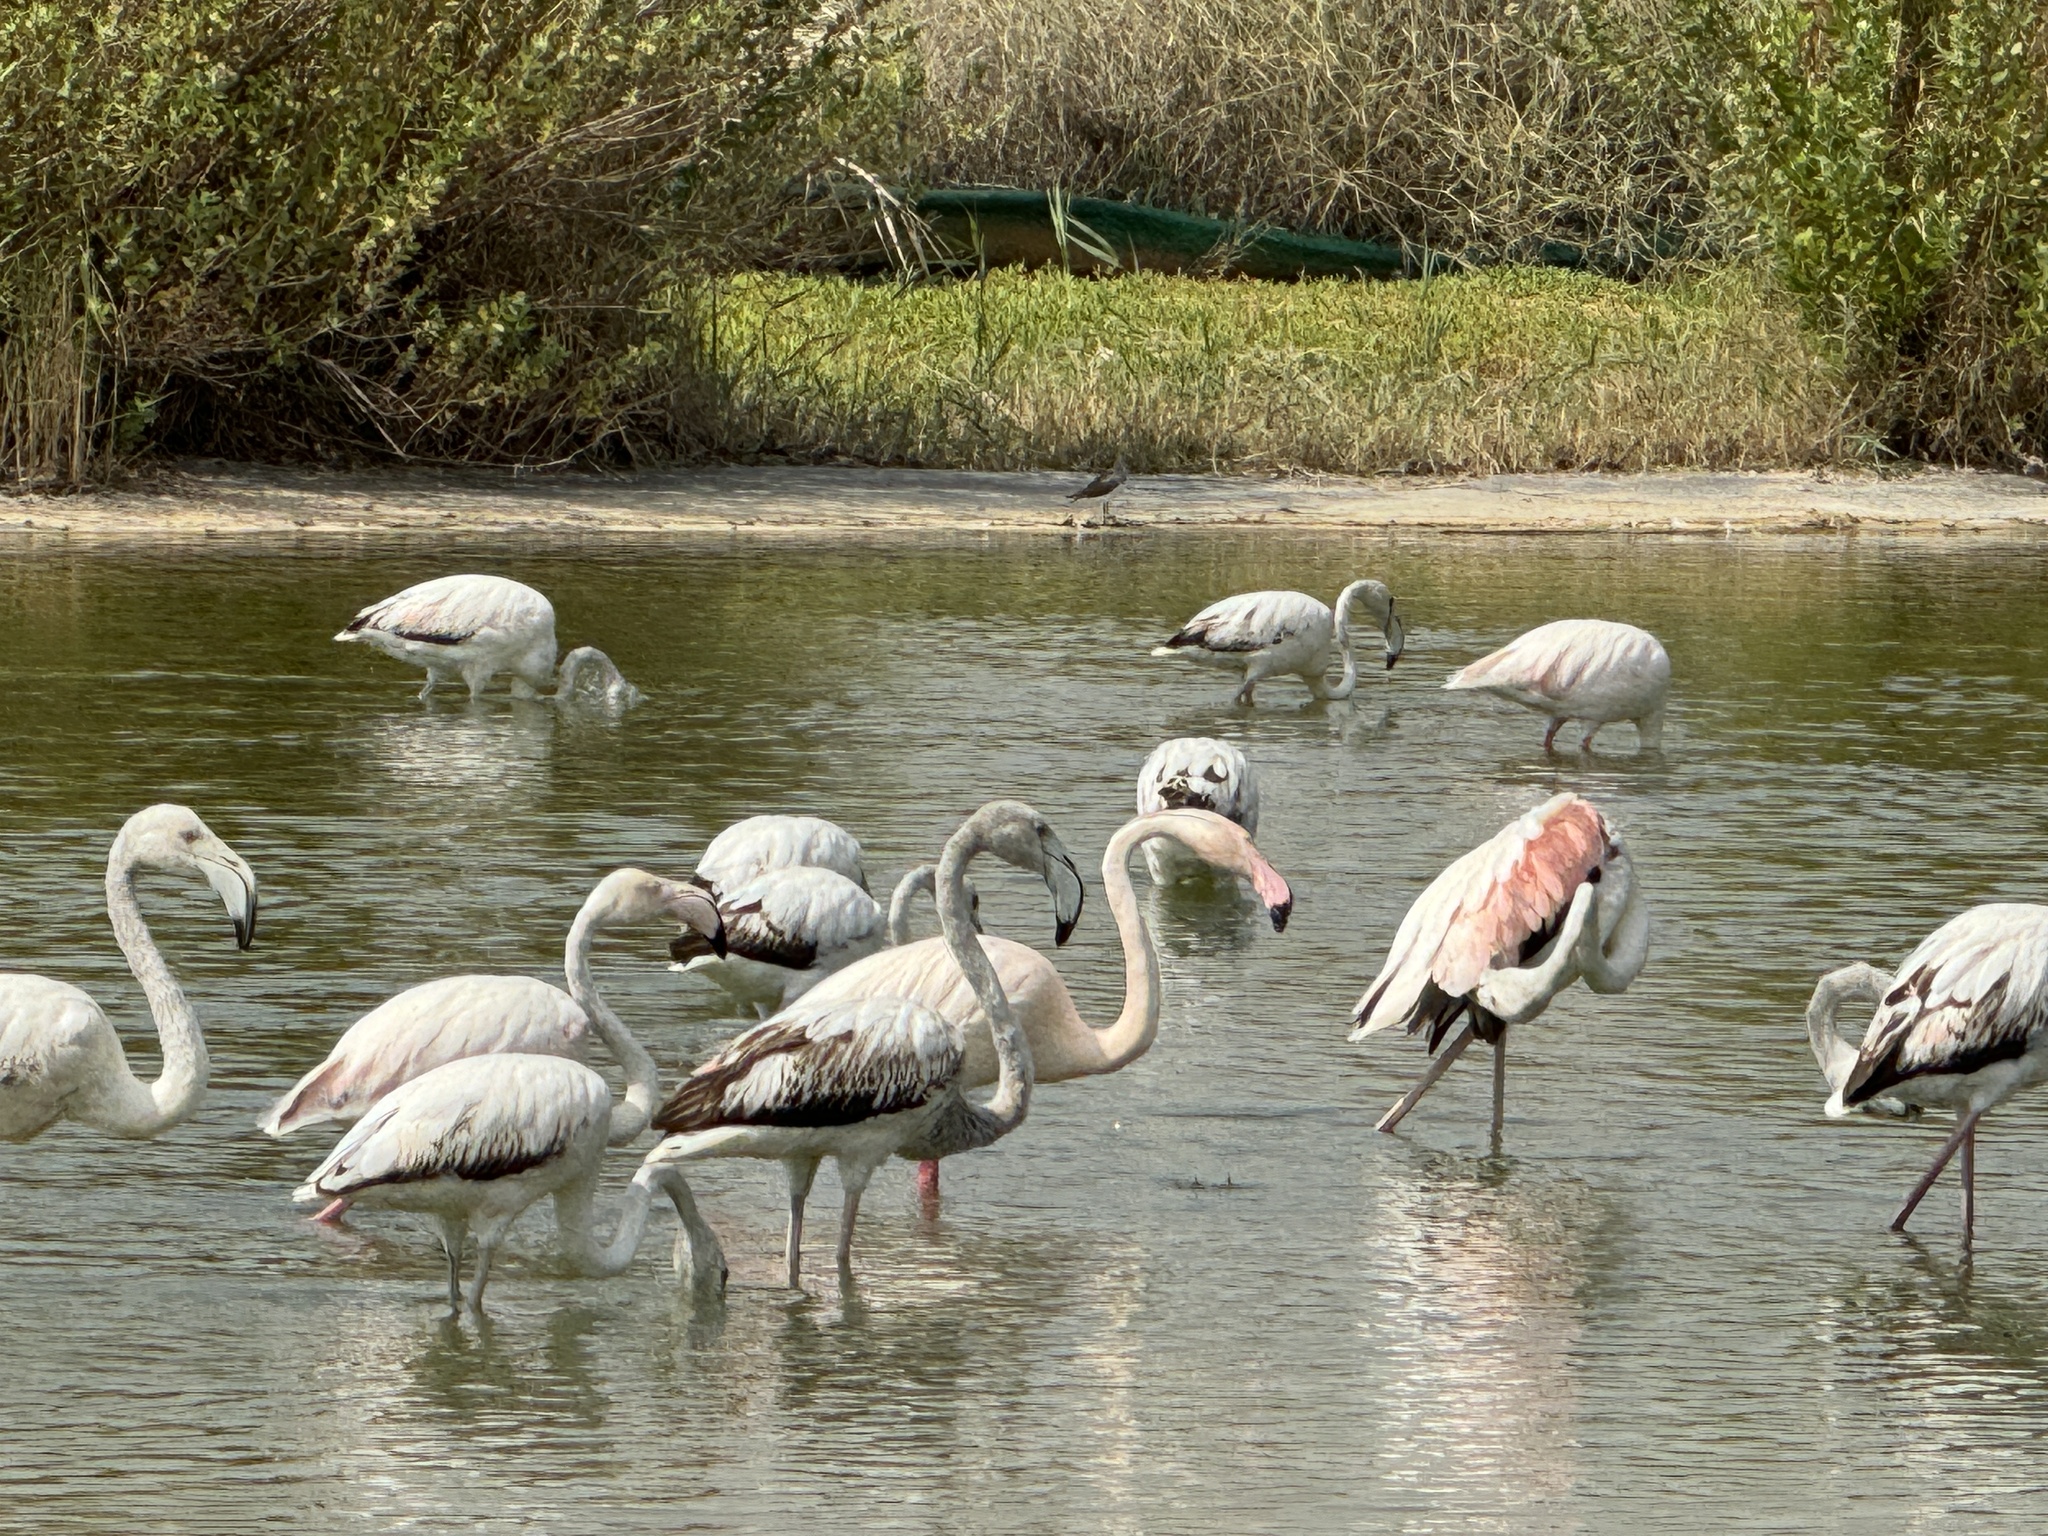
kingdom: Animalia
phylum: Chordata
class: Aves
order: Phoenicopteriformes
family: Phoenicopteridae
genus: Phoenicopterus
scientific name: Phoenicopterus roseus
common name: Greater flamingo
